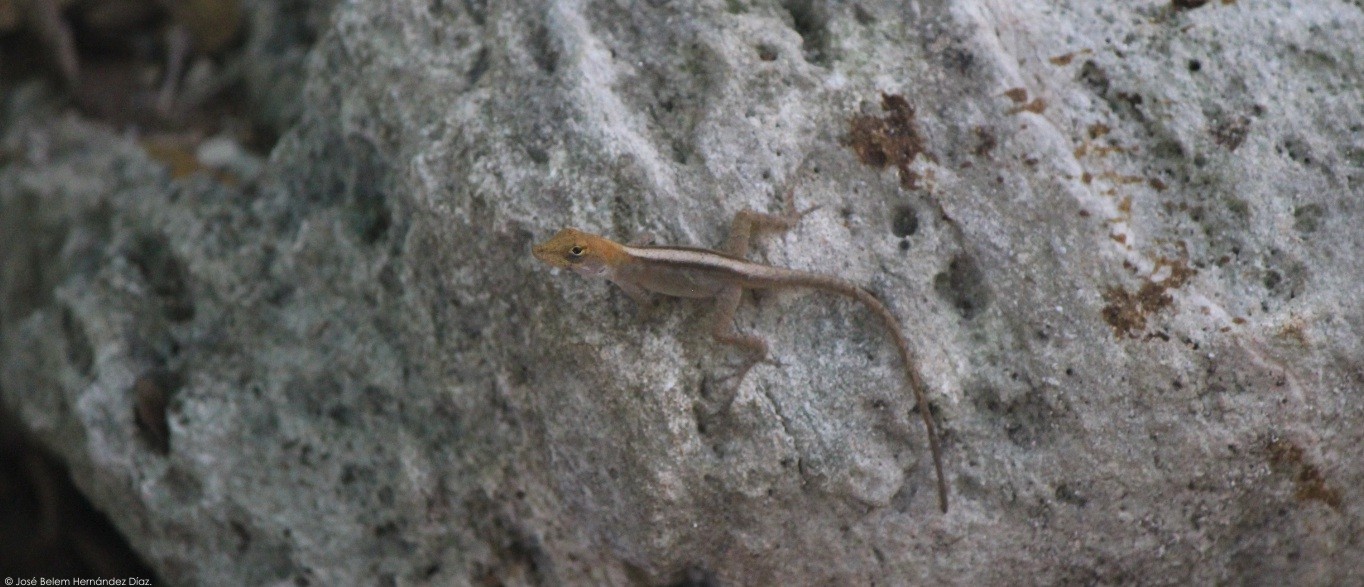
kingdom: Animalia
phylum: Chordata
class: Squamata
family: Dactyloidae
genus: Anolis
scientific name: Anolis sagrei
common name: Brown anole
